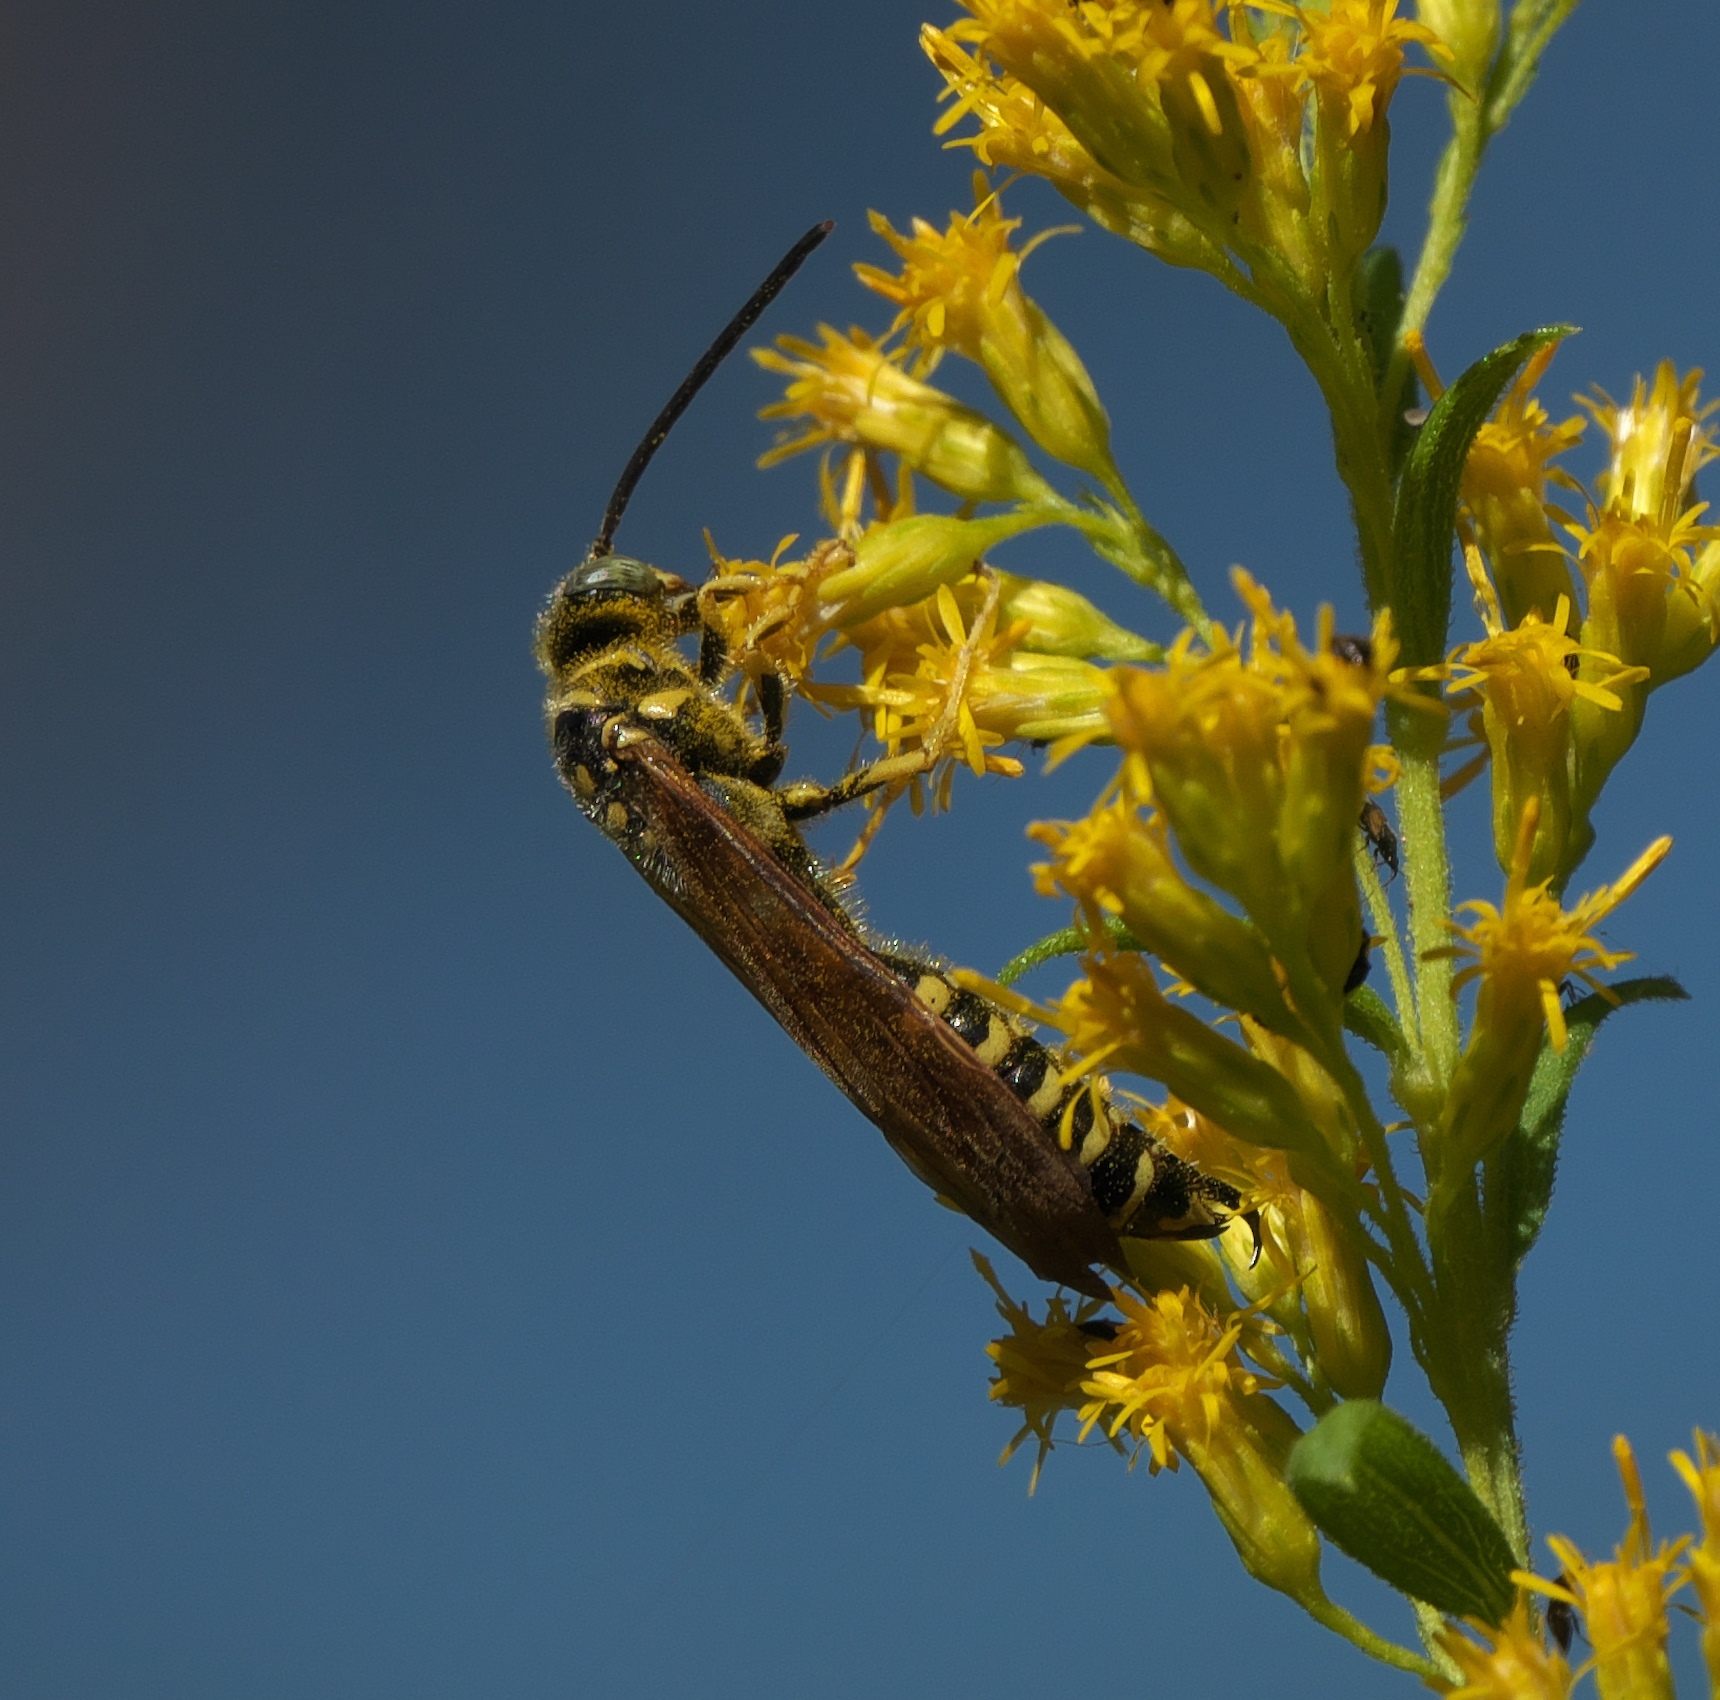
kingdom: Animalia
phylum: Arthropoda
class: Insecta
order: Hymenoptera
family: Tiphiidae
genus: Myzinum
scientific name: Myzinum quinquecinctum
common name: Five-banded thynnid wasp
